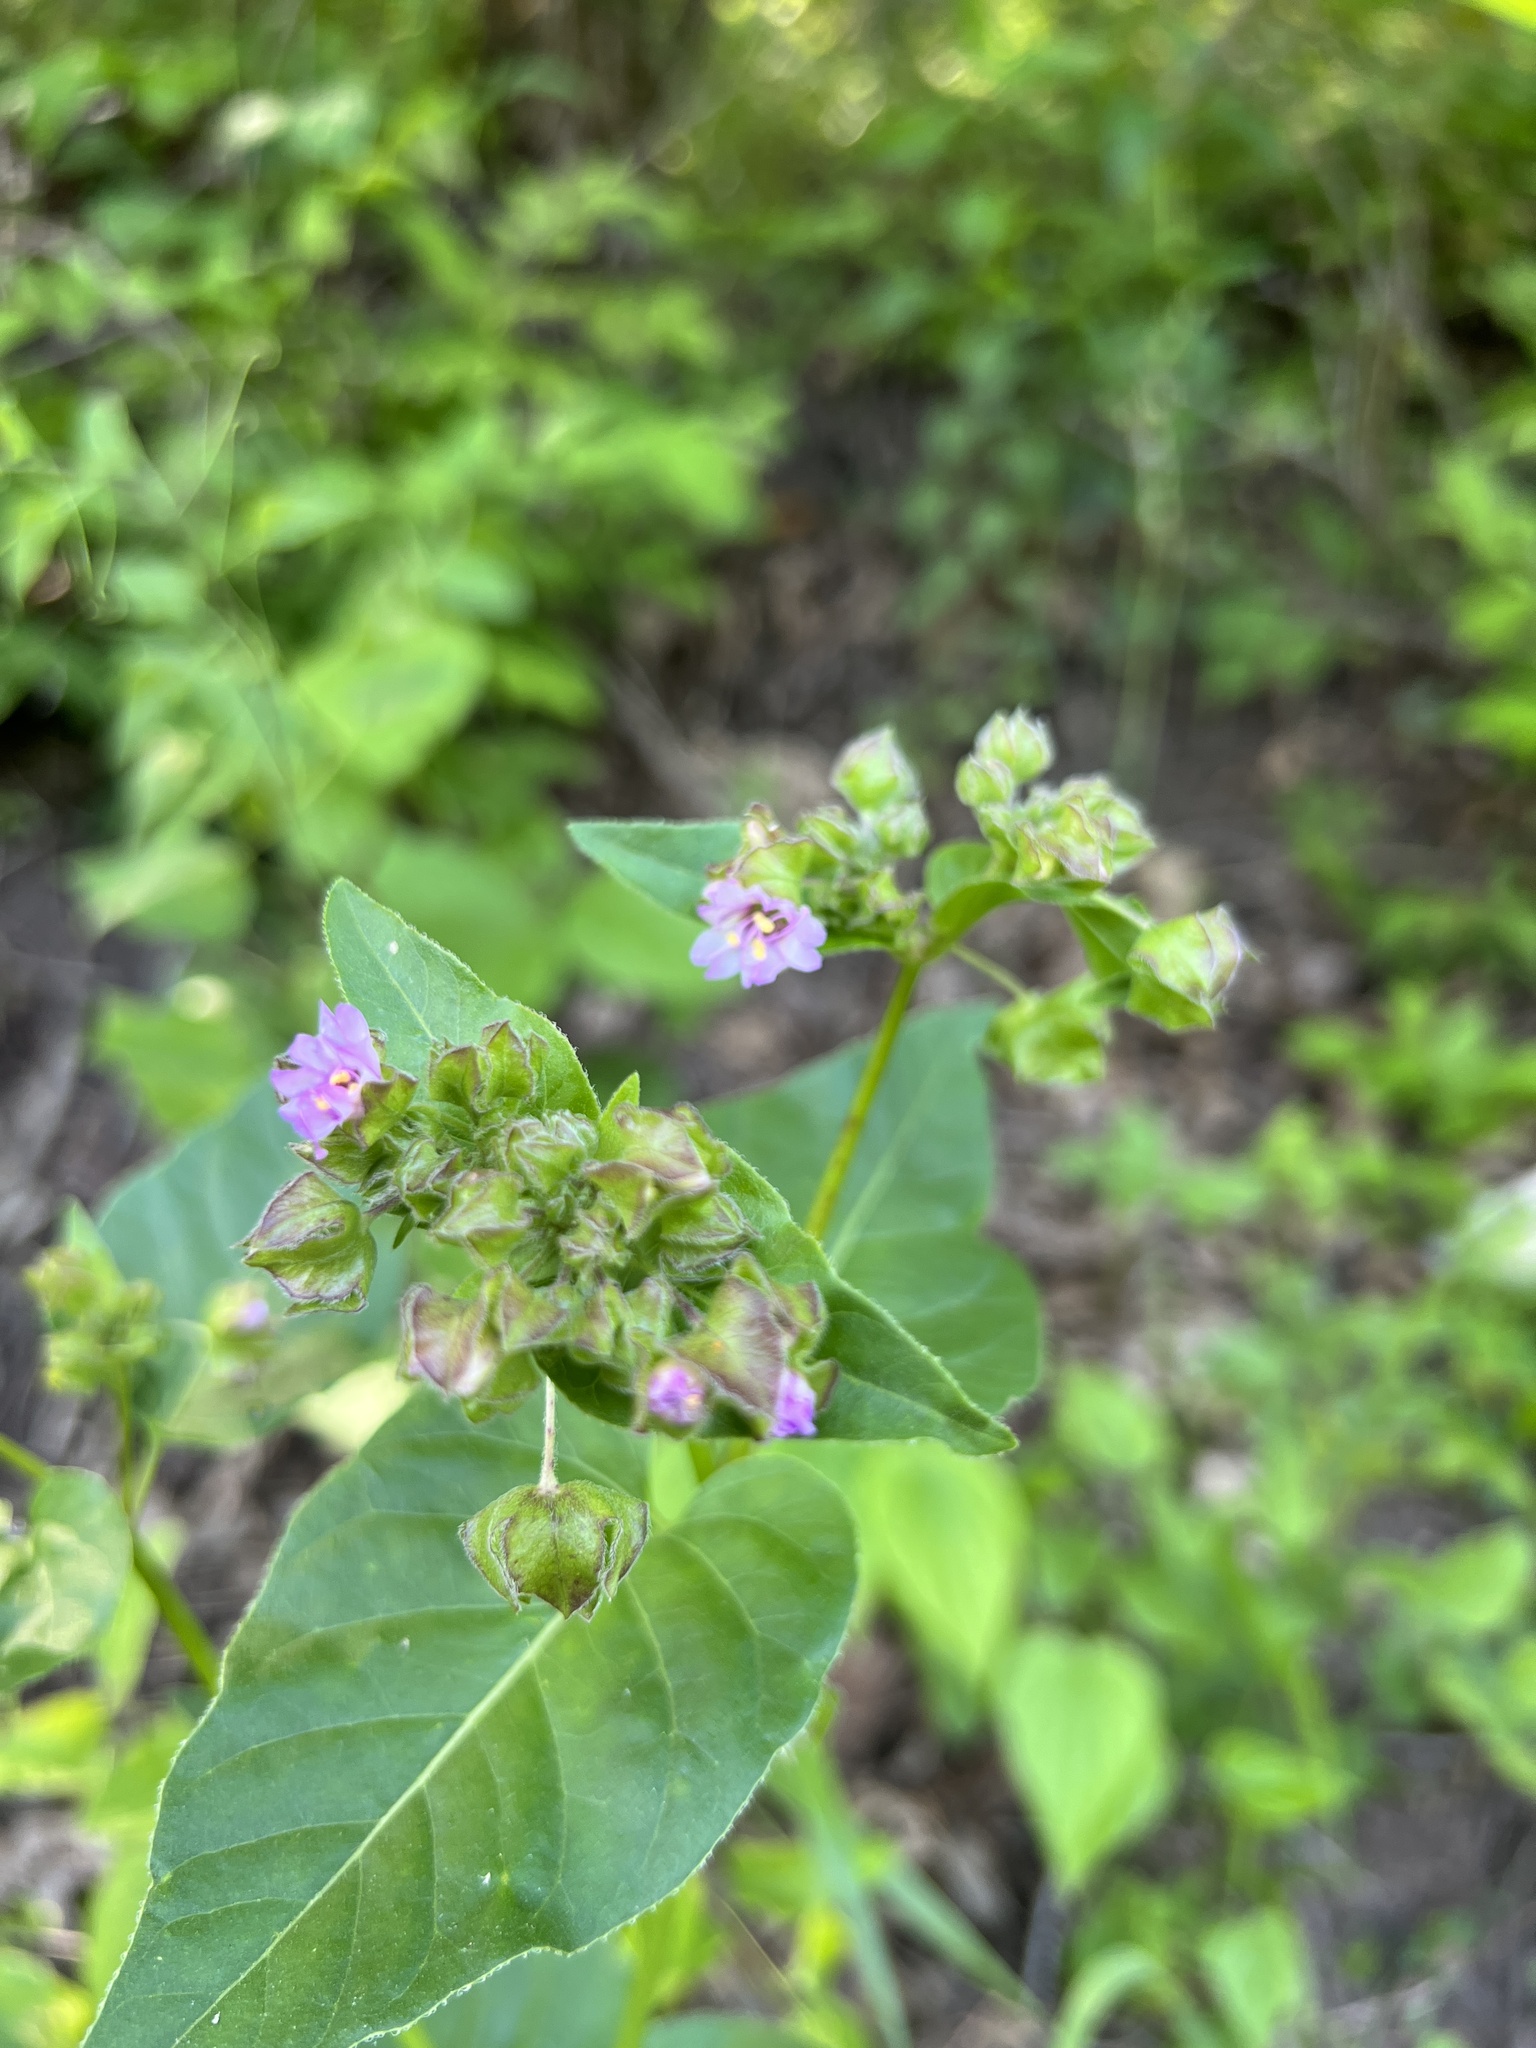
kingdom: Plantae
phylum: Tracheophyta
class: Magnoliopsida
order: Caryophyllales
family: Nyctaginaceae
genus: Mirabilis
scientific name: Mirabilis nyctaginea
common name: Umbrella wort
